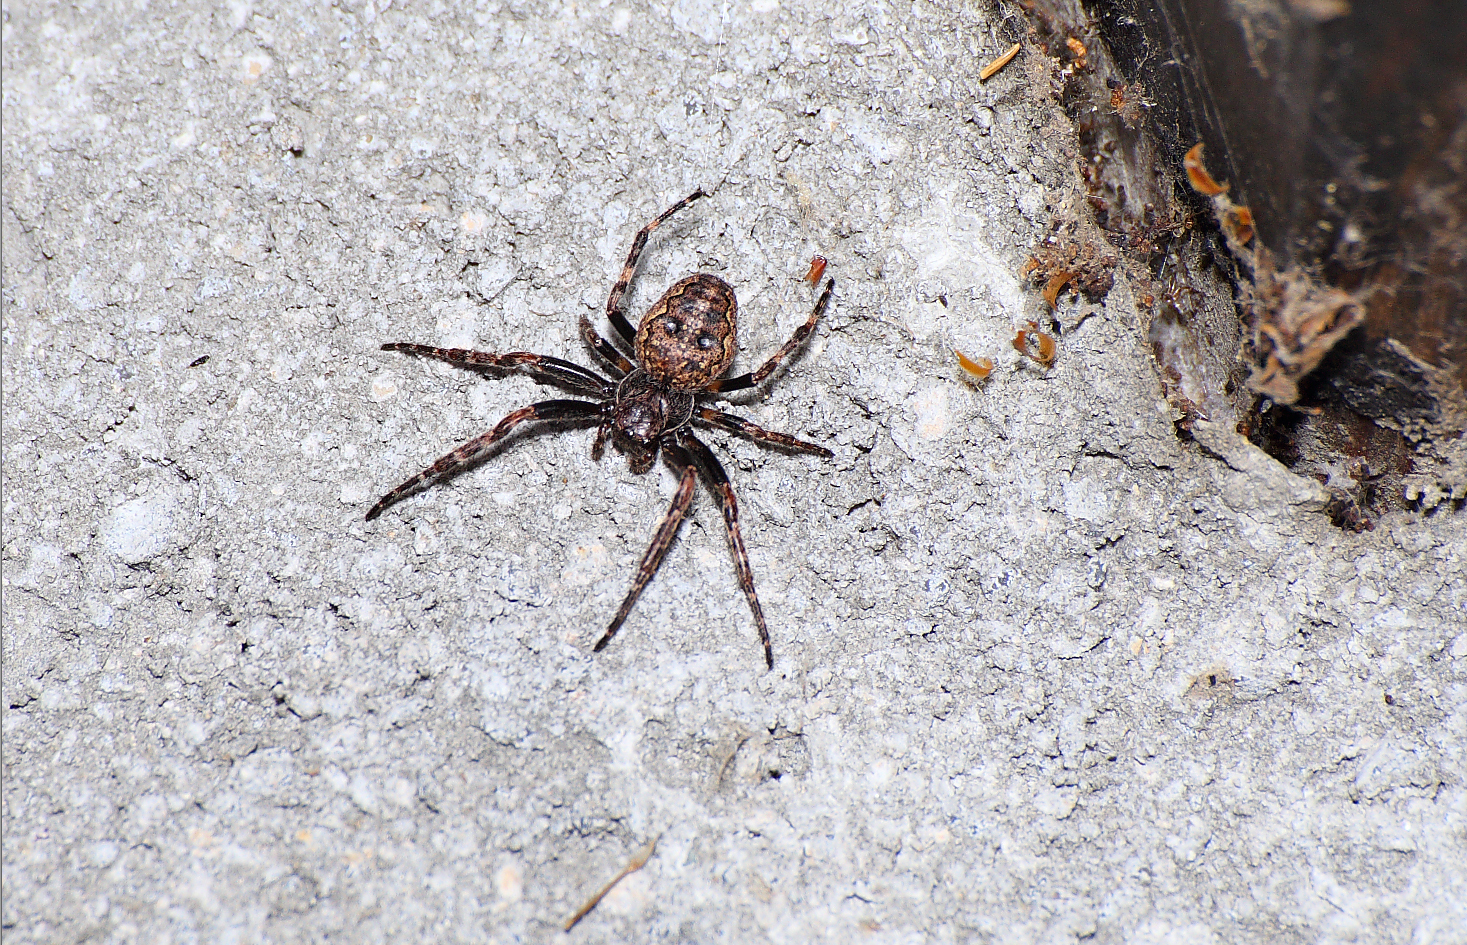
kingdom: Animalia
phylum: Arthropoda
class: Arachnida
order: Araneae
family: Araneidae
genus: Nuctenea
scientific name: Nuctenea umbratica
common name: Toad spider
